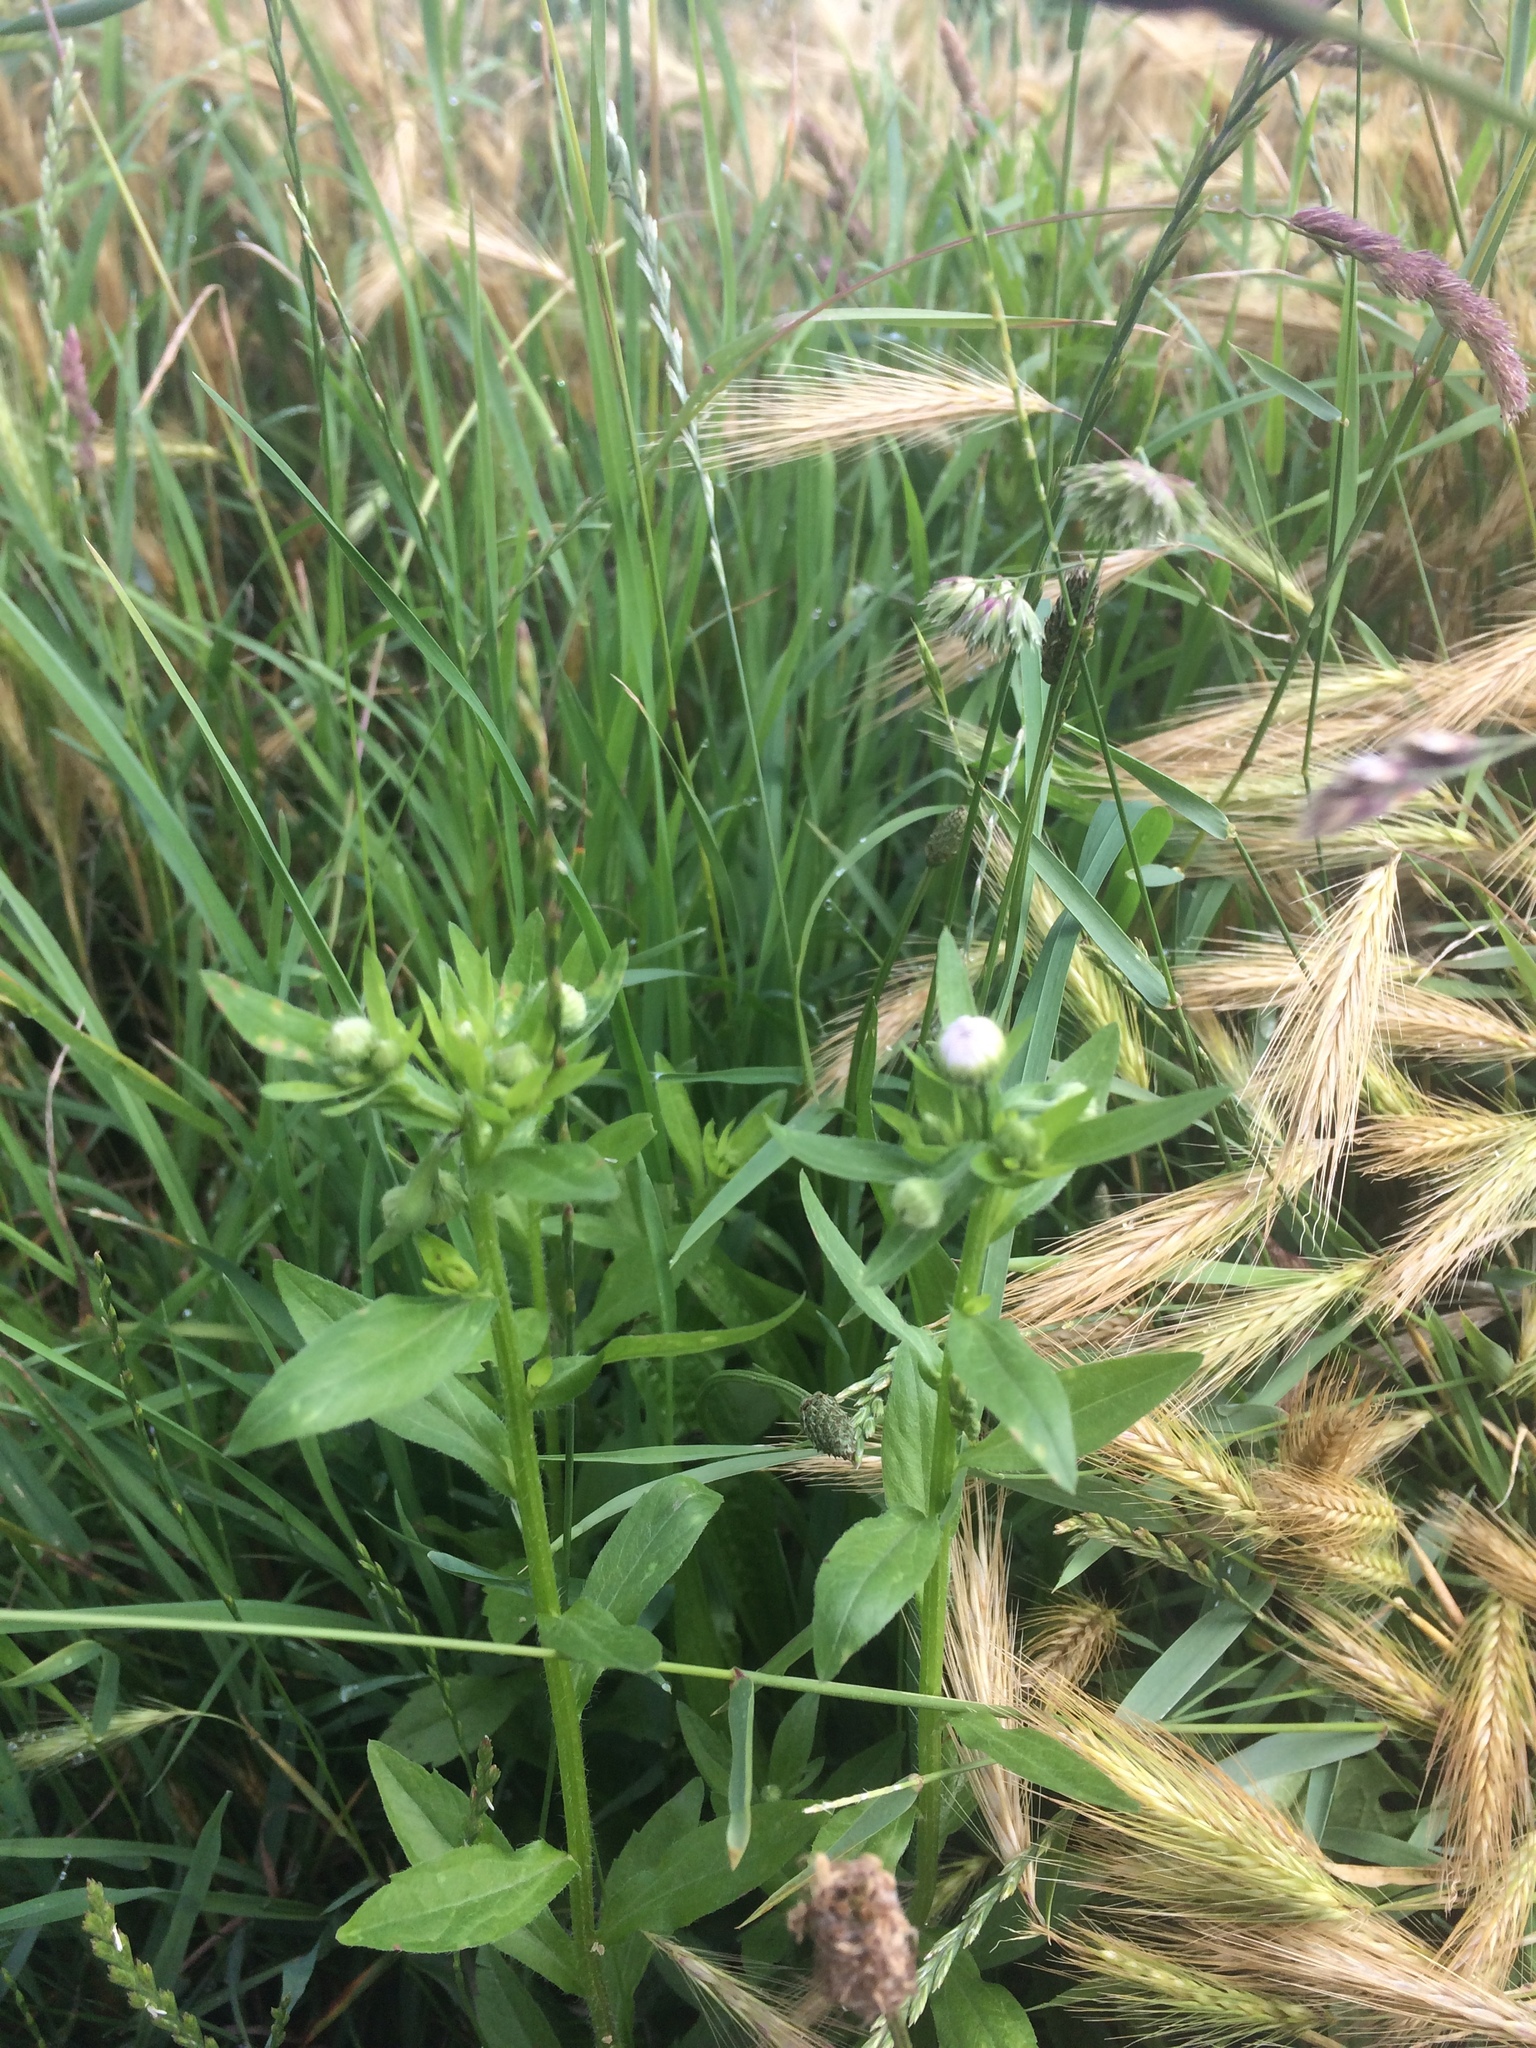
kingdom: Plantae
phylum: Tracheophyta
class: Magnoliopsida
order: Asterales
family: Asteraceae
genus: Erigeron
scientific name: Erigeron annuus
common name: Tall fleabane
